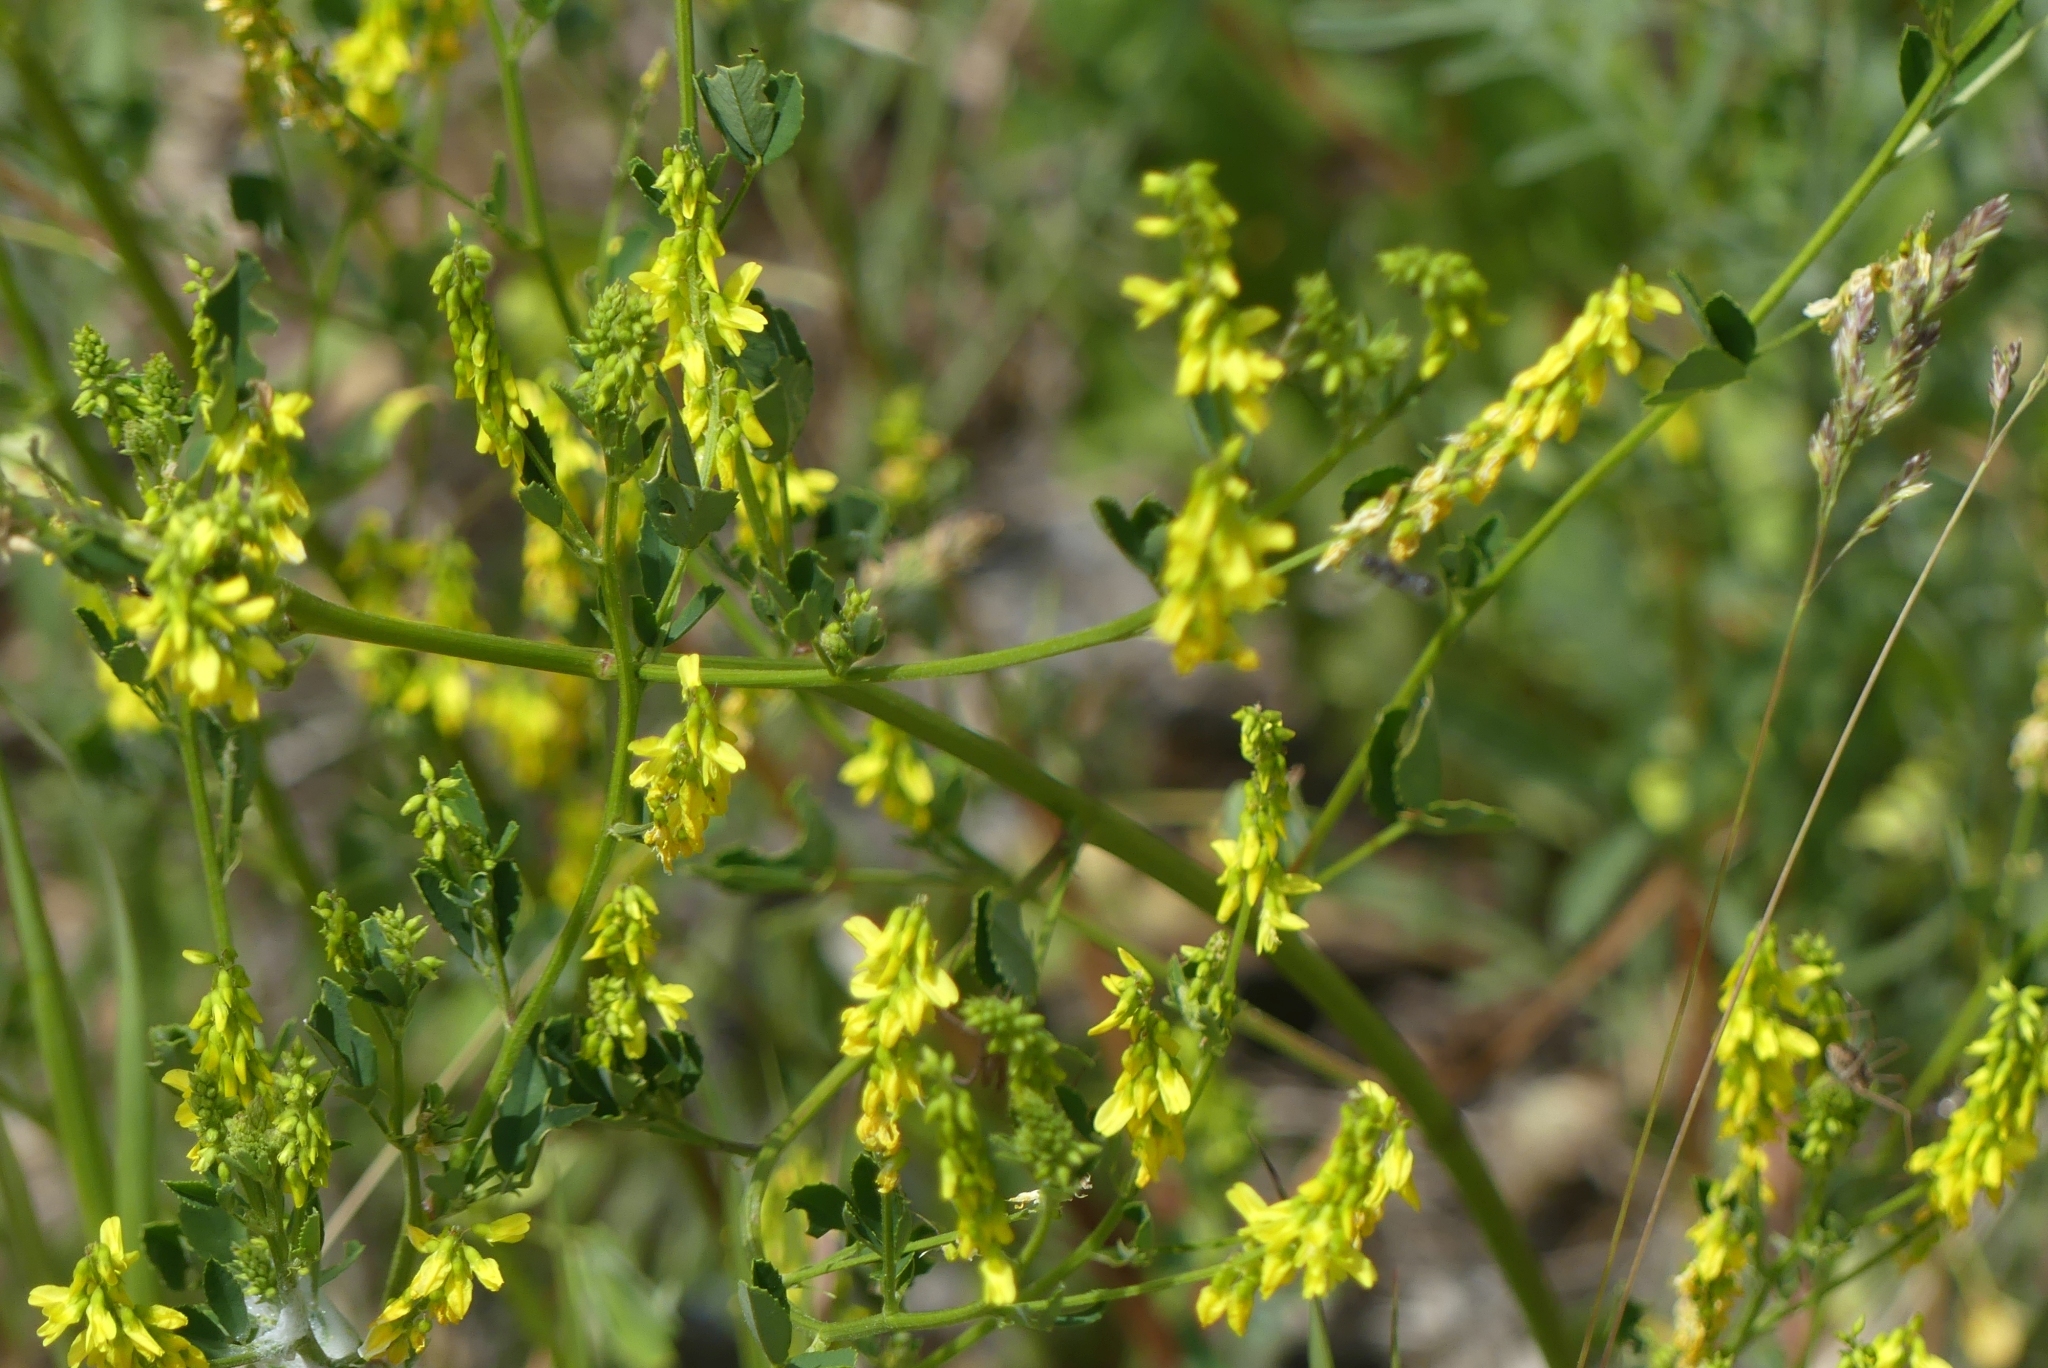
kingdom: Plantae
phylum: Tracheophyta
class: Magnoliopsida
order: Fabales
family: Fabaceae
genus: Melilotus
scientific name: Melilotus officinalis
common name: Sweetclover
